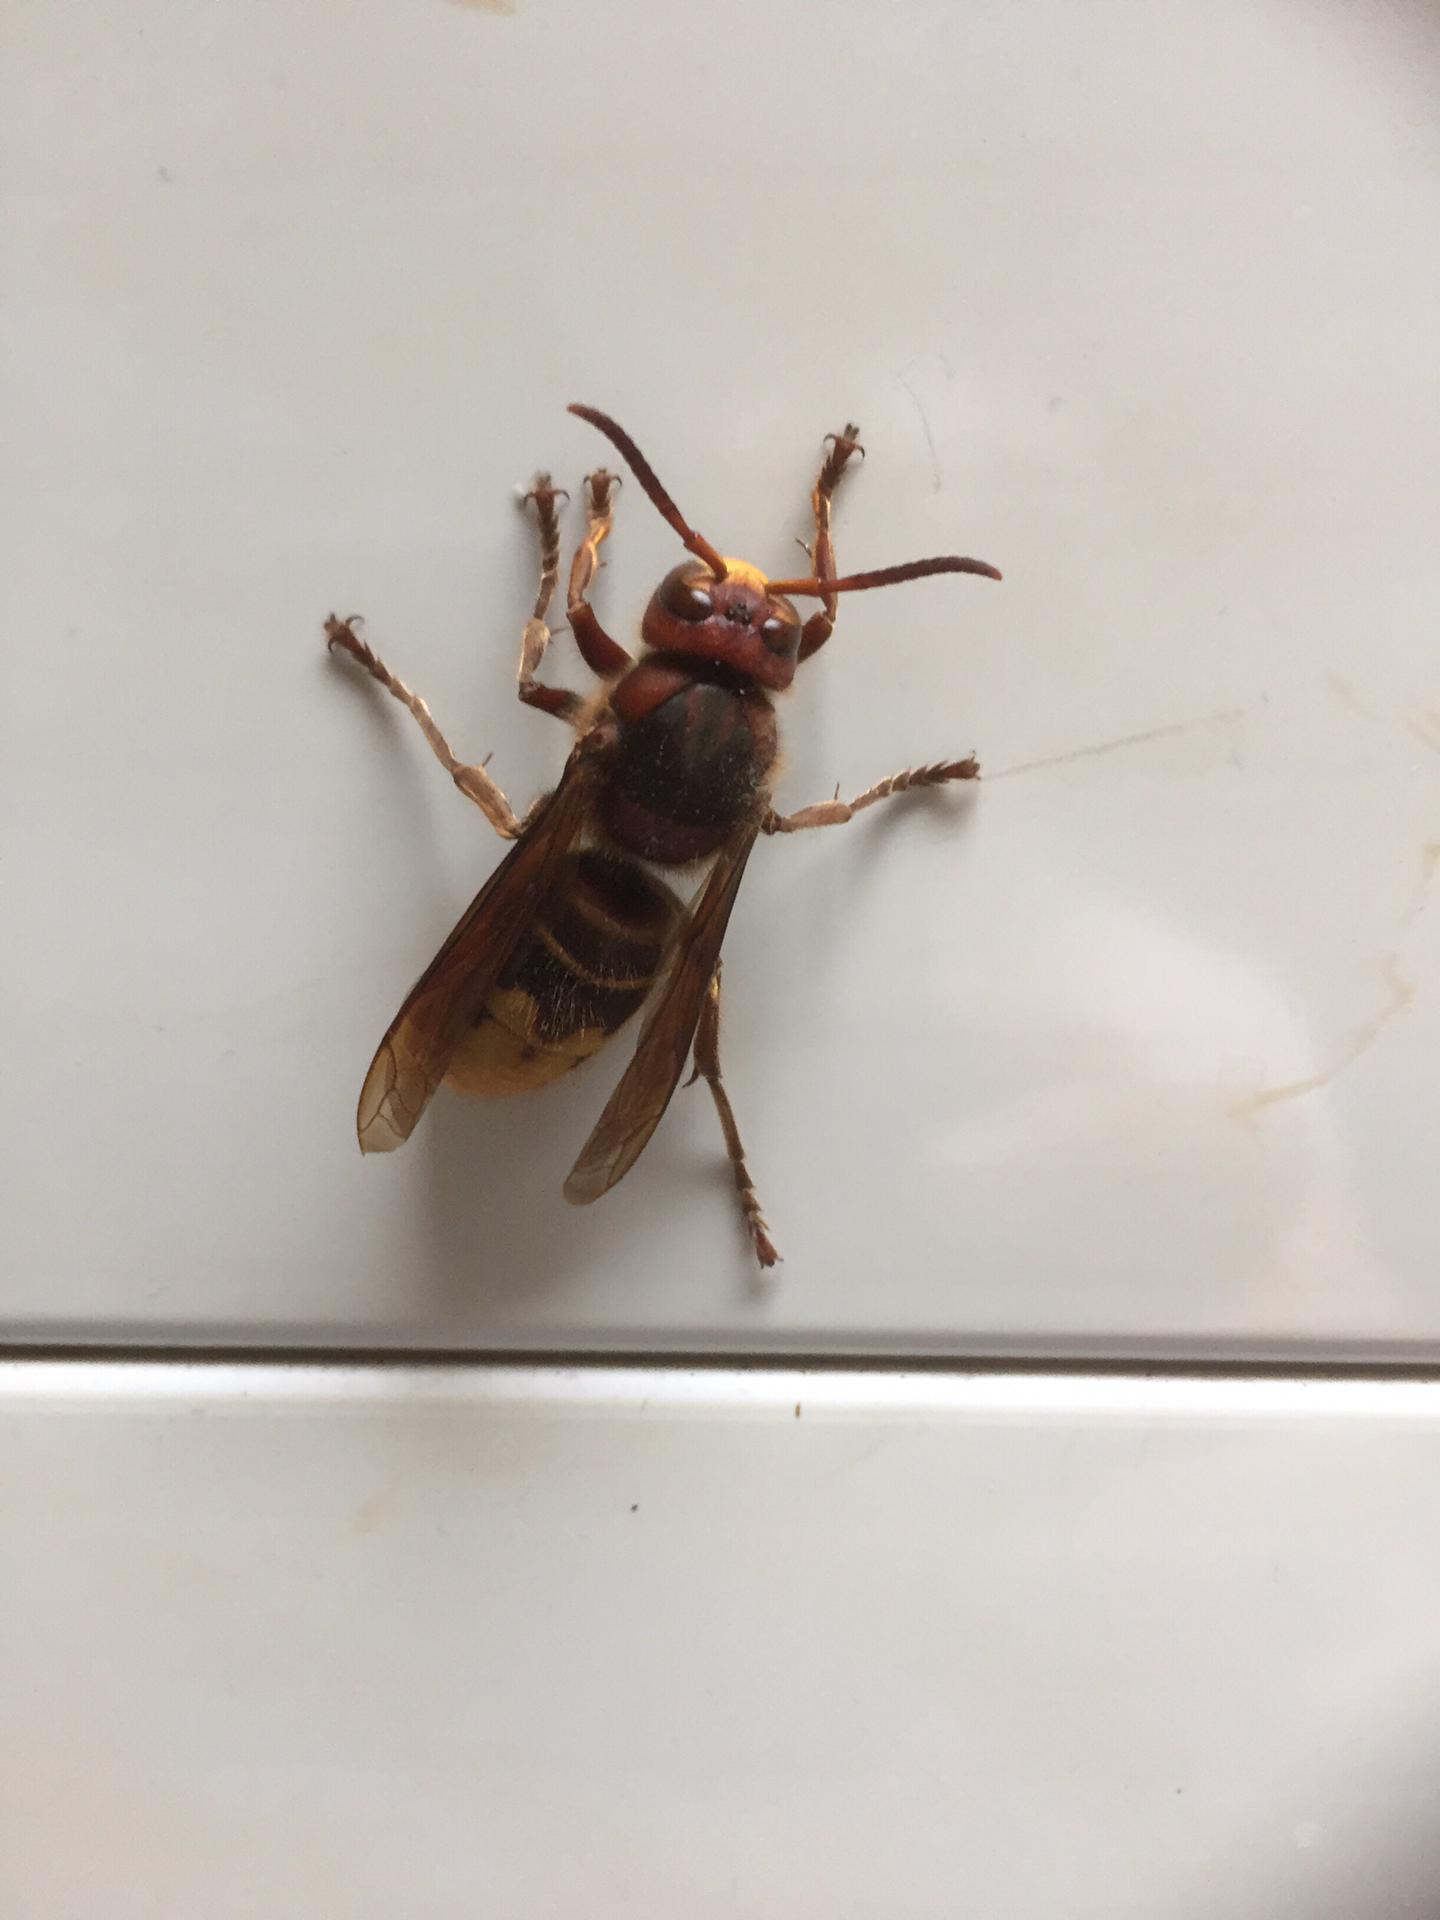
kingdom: Animalia
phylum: Arthropoda
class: Insecta
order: Hymenoptera
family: Vespidae
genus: Vespa
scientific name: Vespa crabro
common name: Hornet
